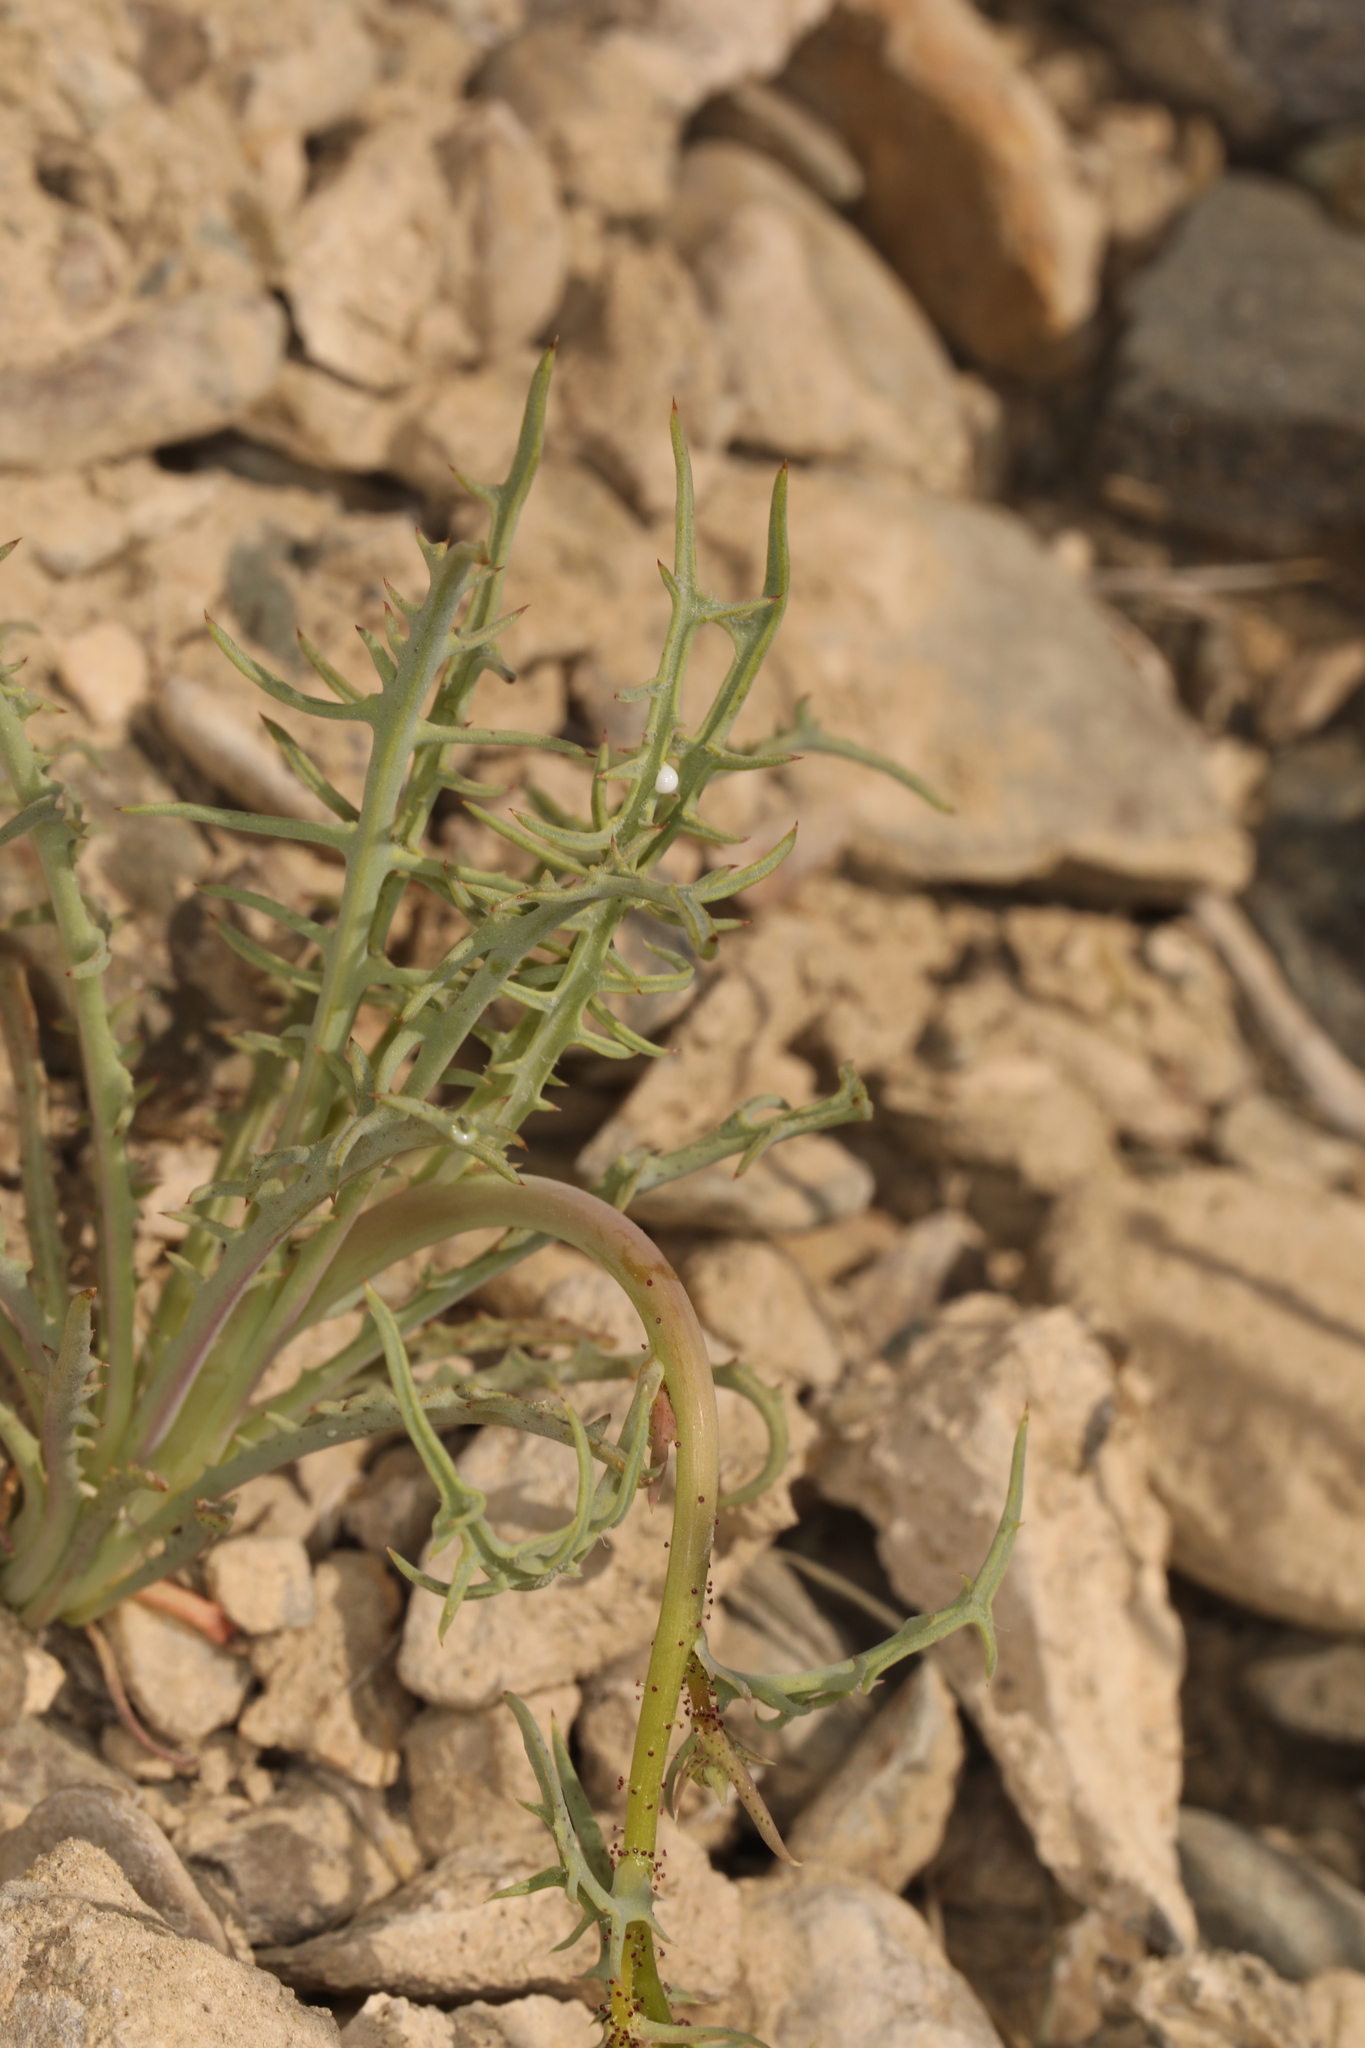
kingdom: Plantae
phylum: Tracheophyta
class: Magnoliopsida
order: Asterales
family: Asteraceae
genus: Calycoseris
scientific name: Calycoseris parryi
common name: Yellow tackstem
